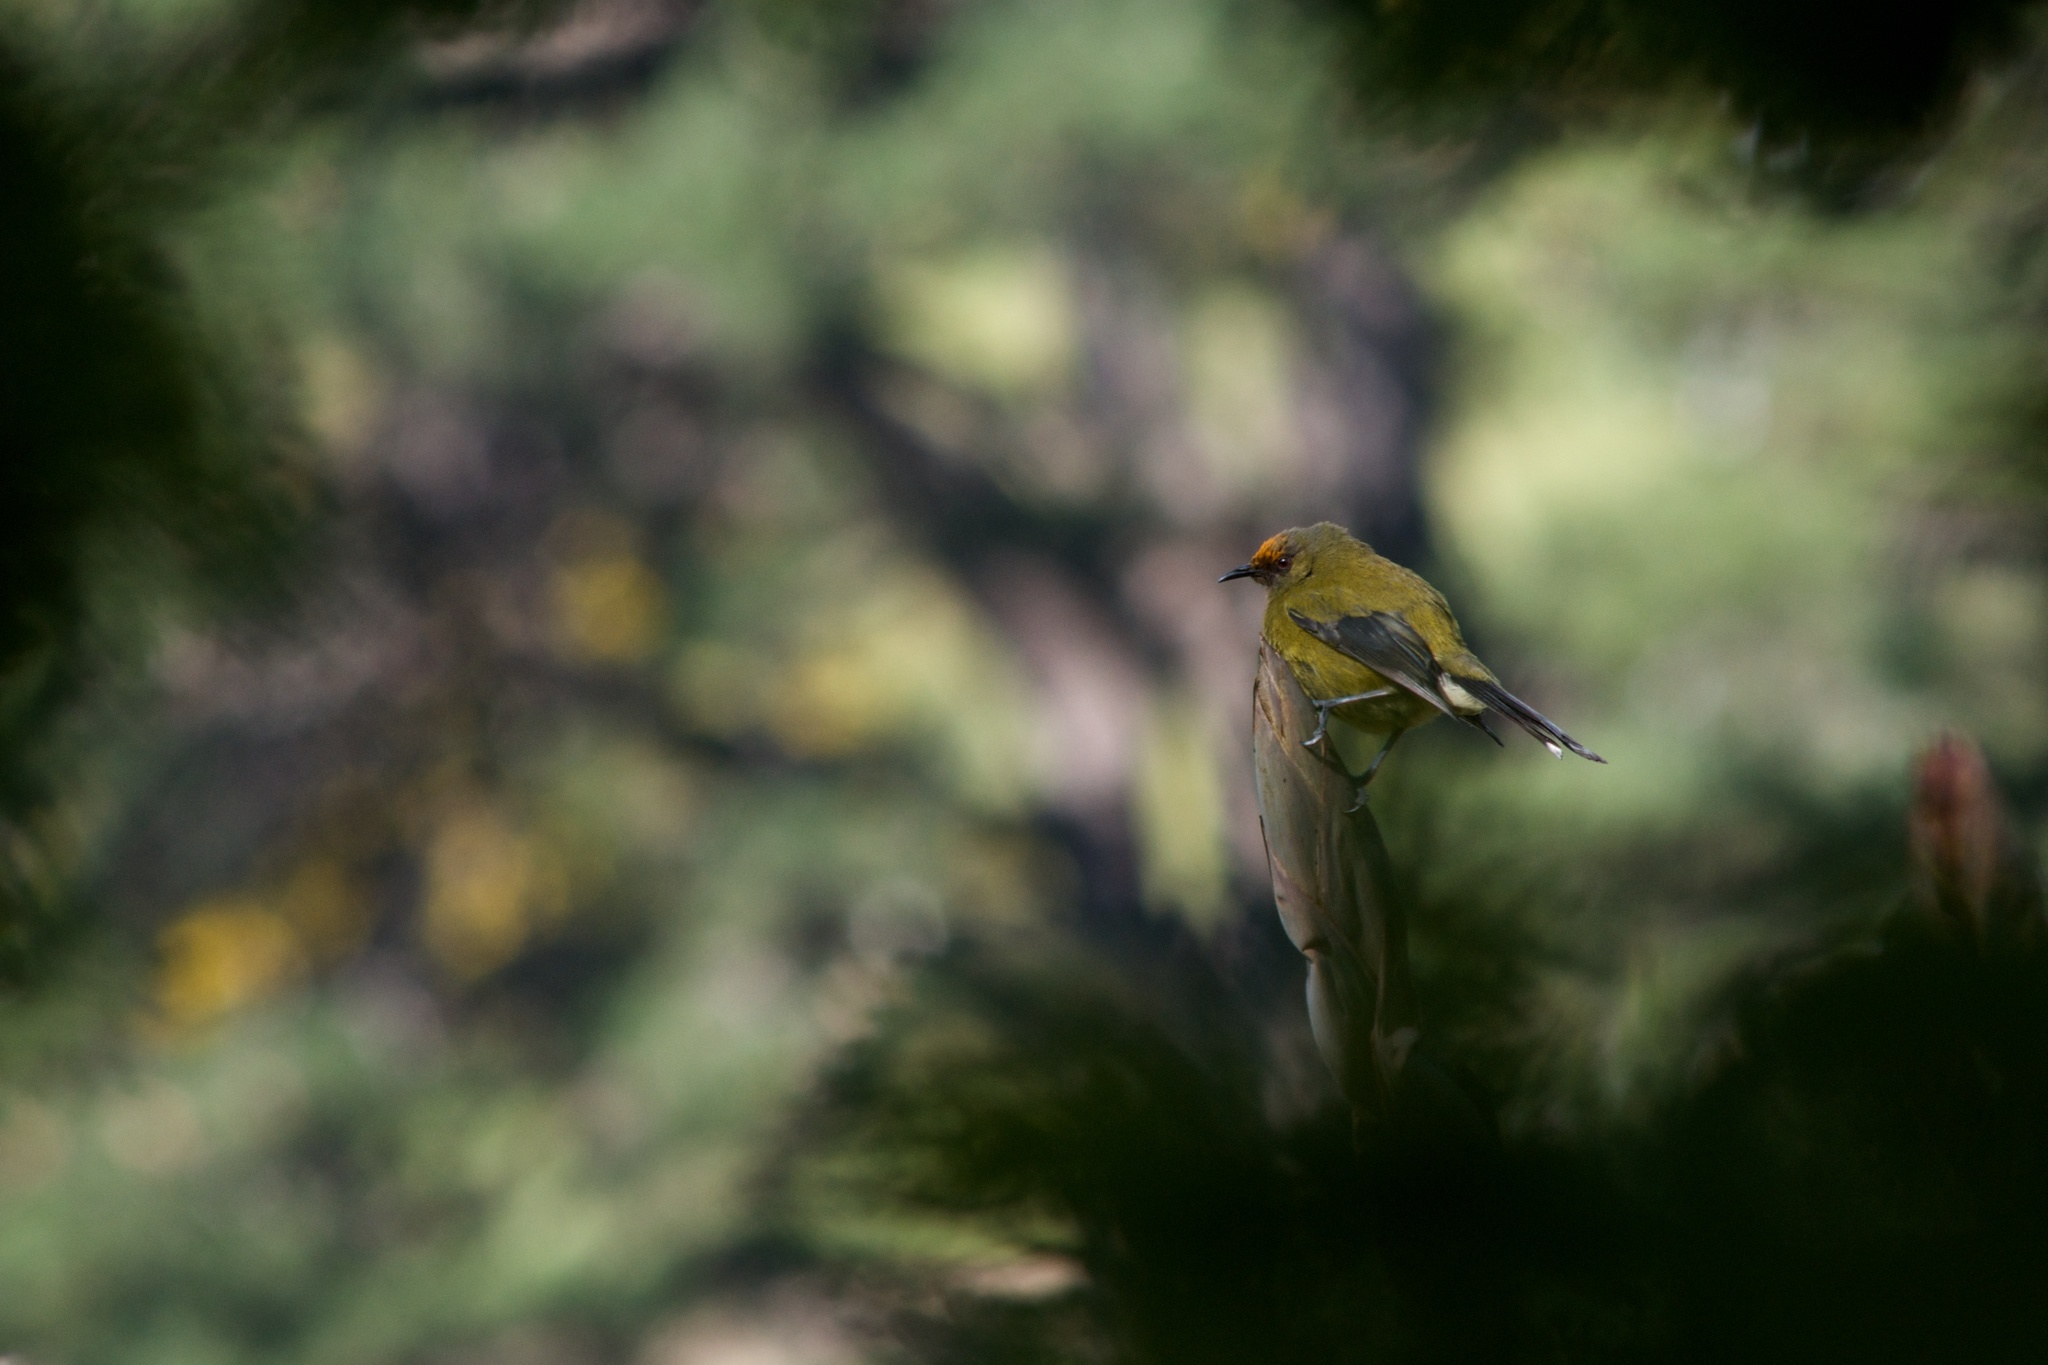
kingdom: Animalia
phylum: Chordata
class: Aves
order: Passeriformes
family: Meliphagidae
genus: Anthornis
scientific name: Anthornis melanura
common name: New zealand bellbird
